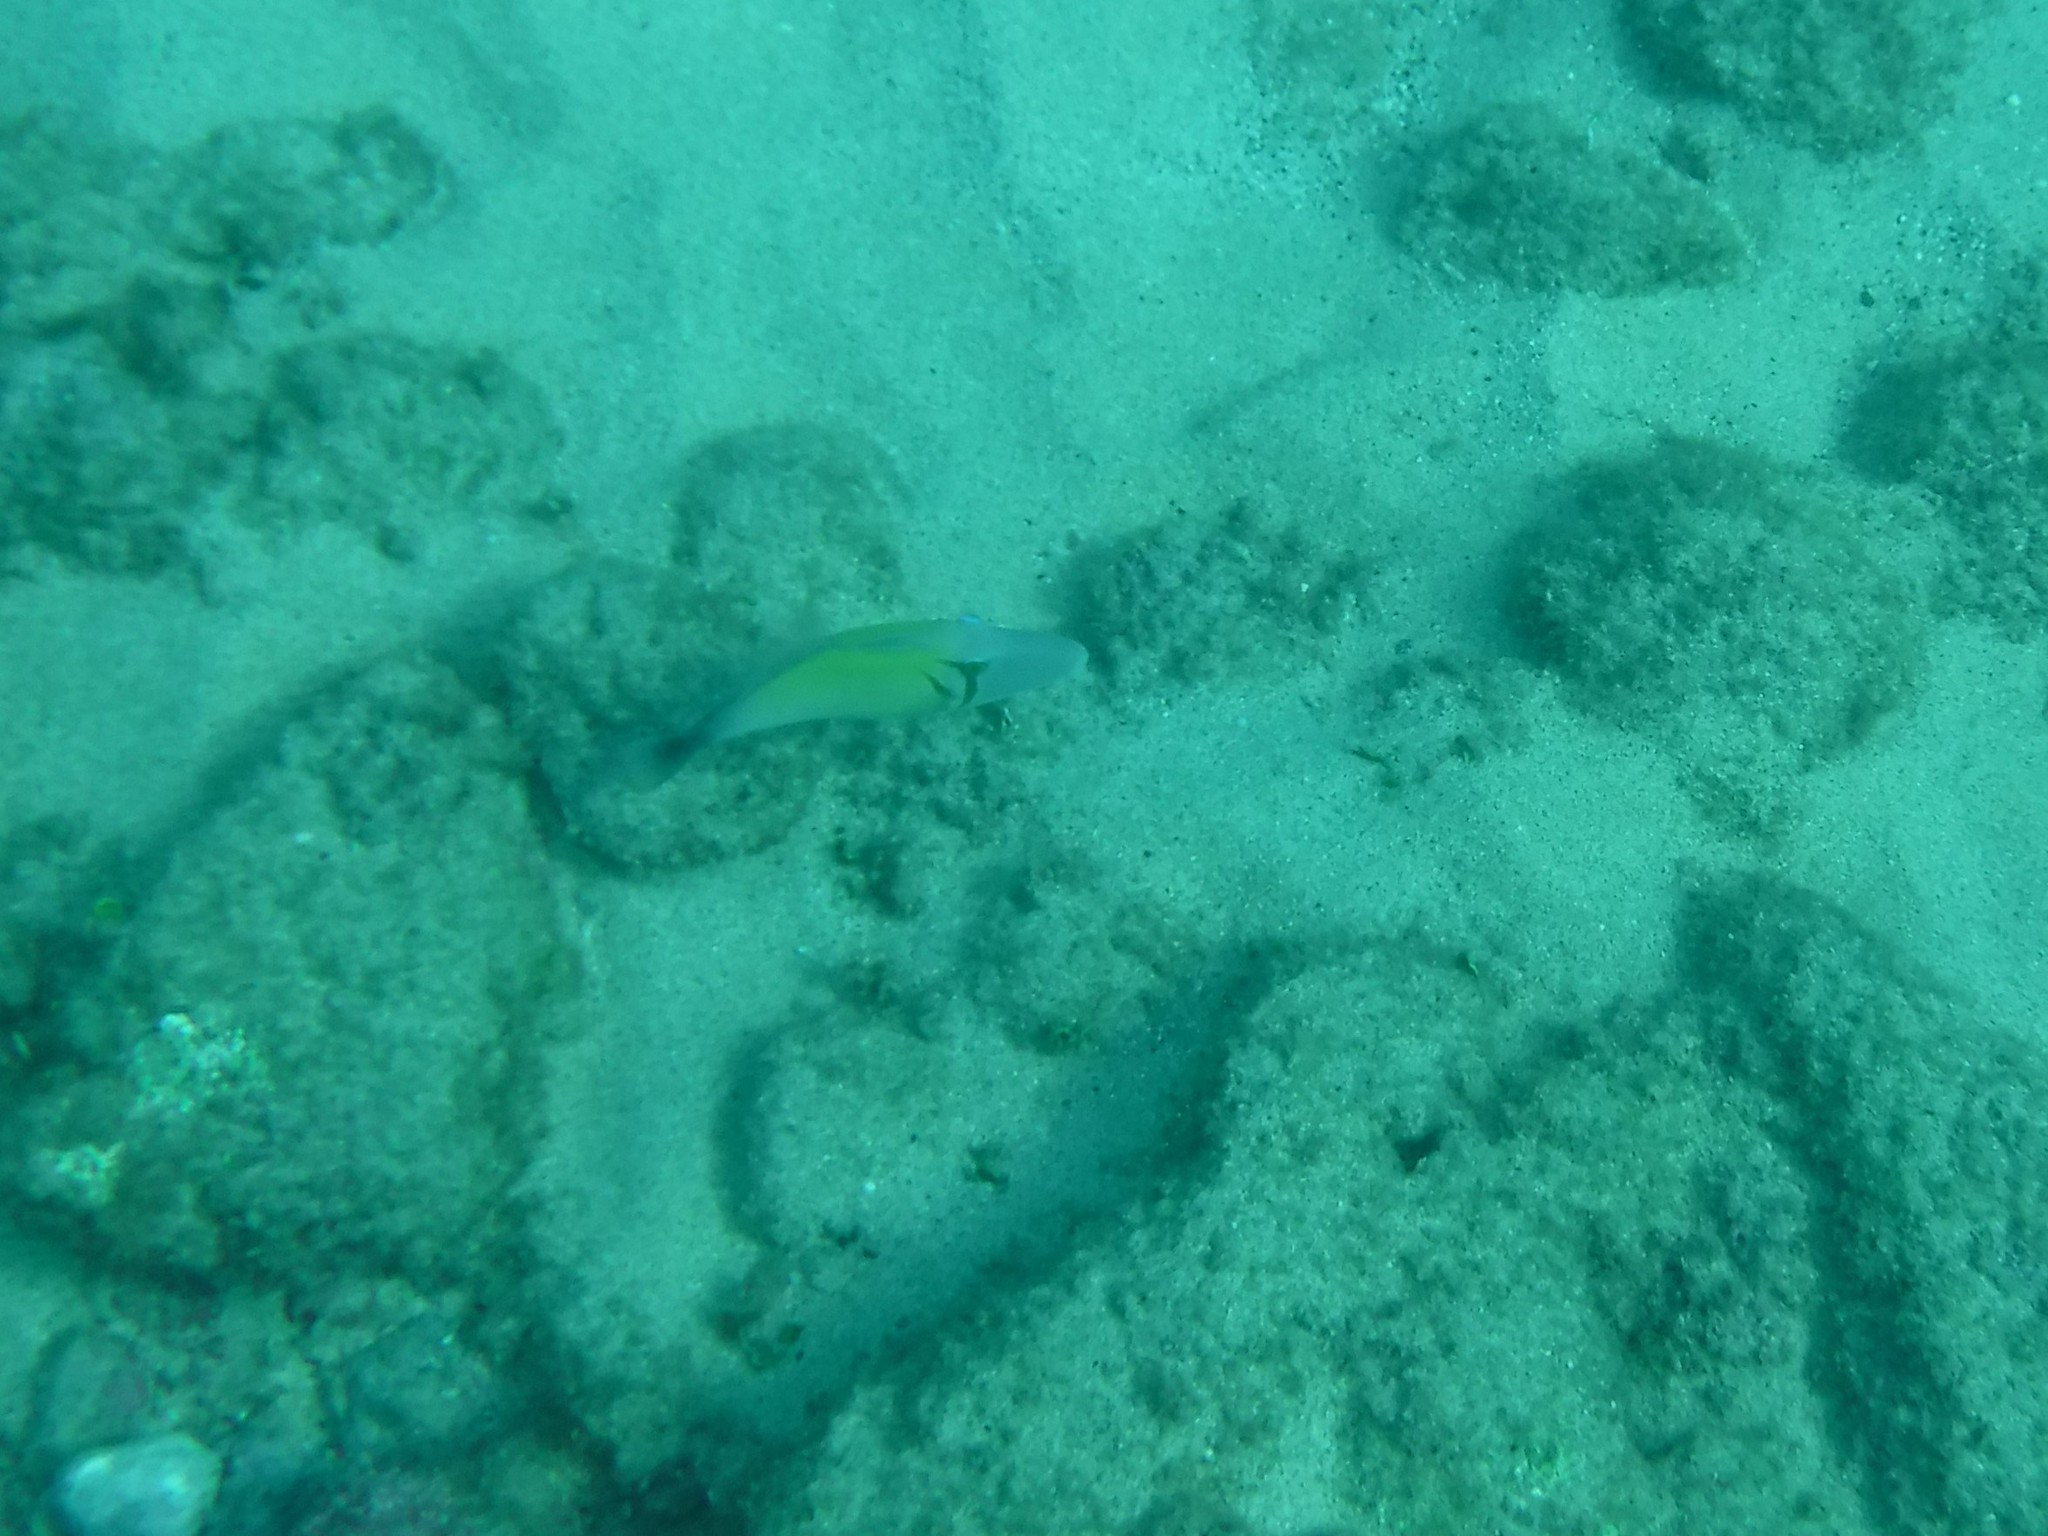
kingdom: Animalia
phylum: Chordata
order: Tetraodontiformes
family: Balistidae
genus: Sufflamen
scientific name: Sufflamen bursa
